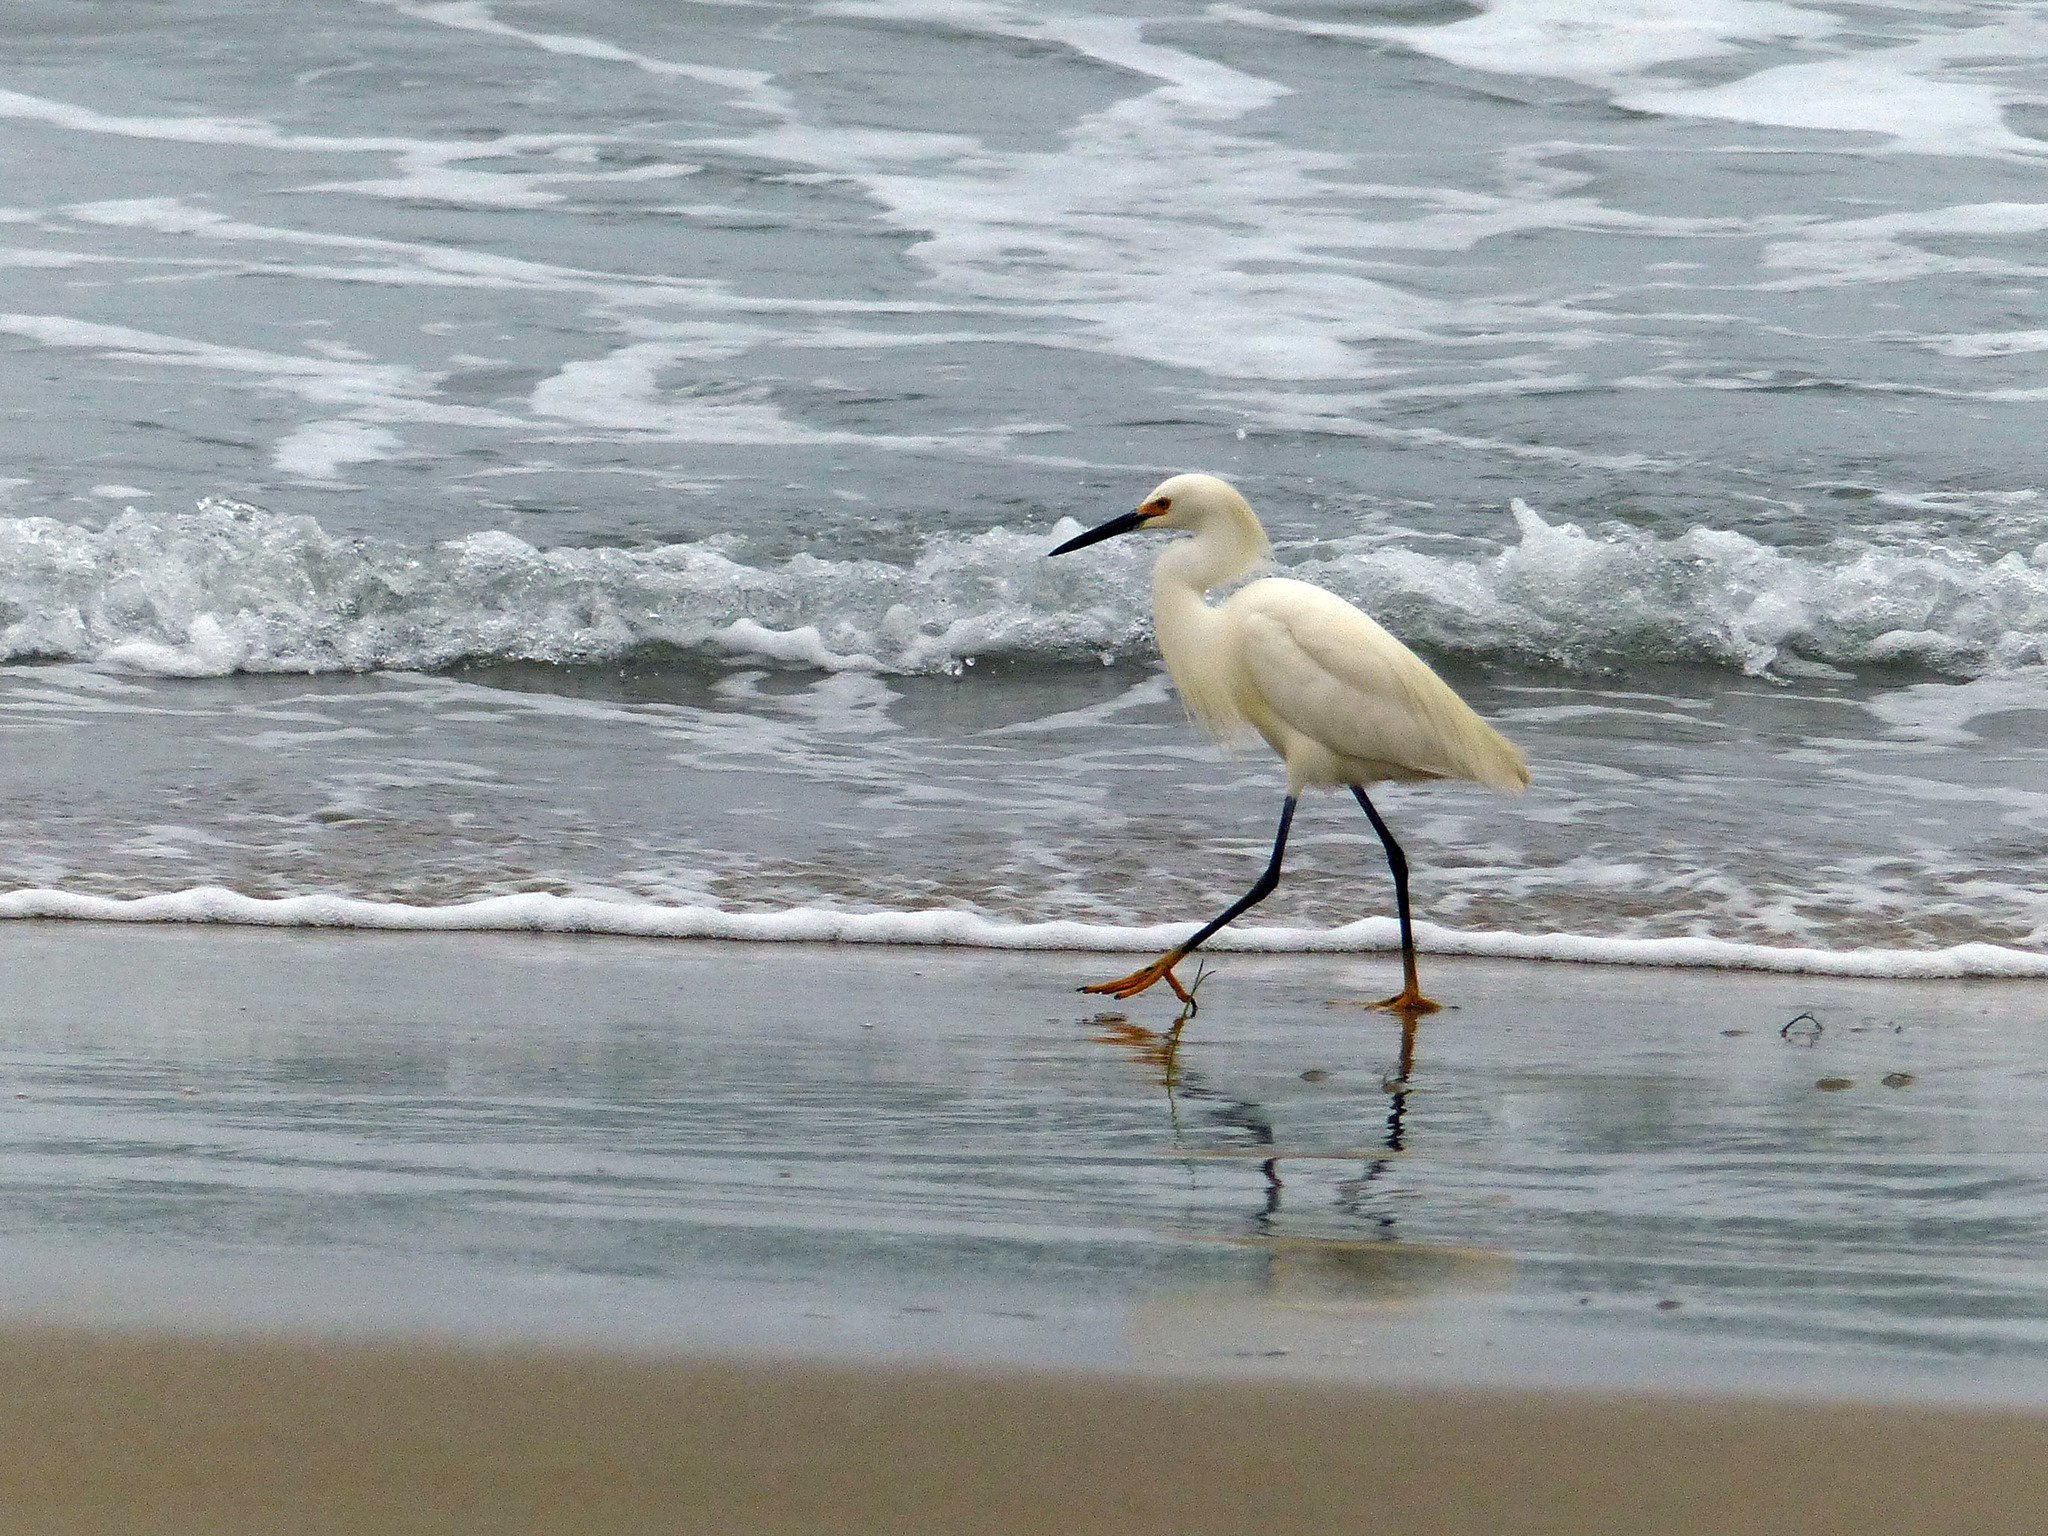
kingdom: Animalia
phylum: Chordata
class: Aves
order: Pelecaniformes
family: Ardeidae
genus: Egretta
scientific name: Egretta thula
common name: Snowy egret
